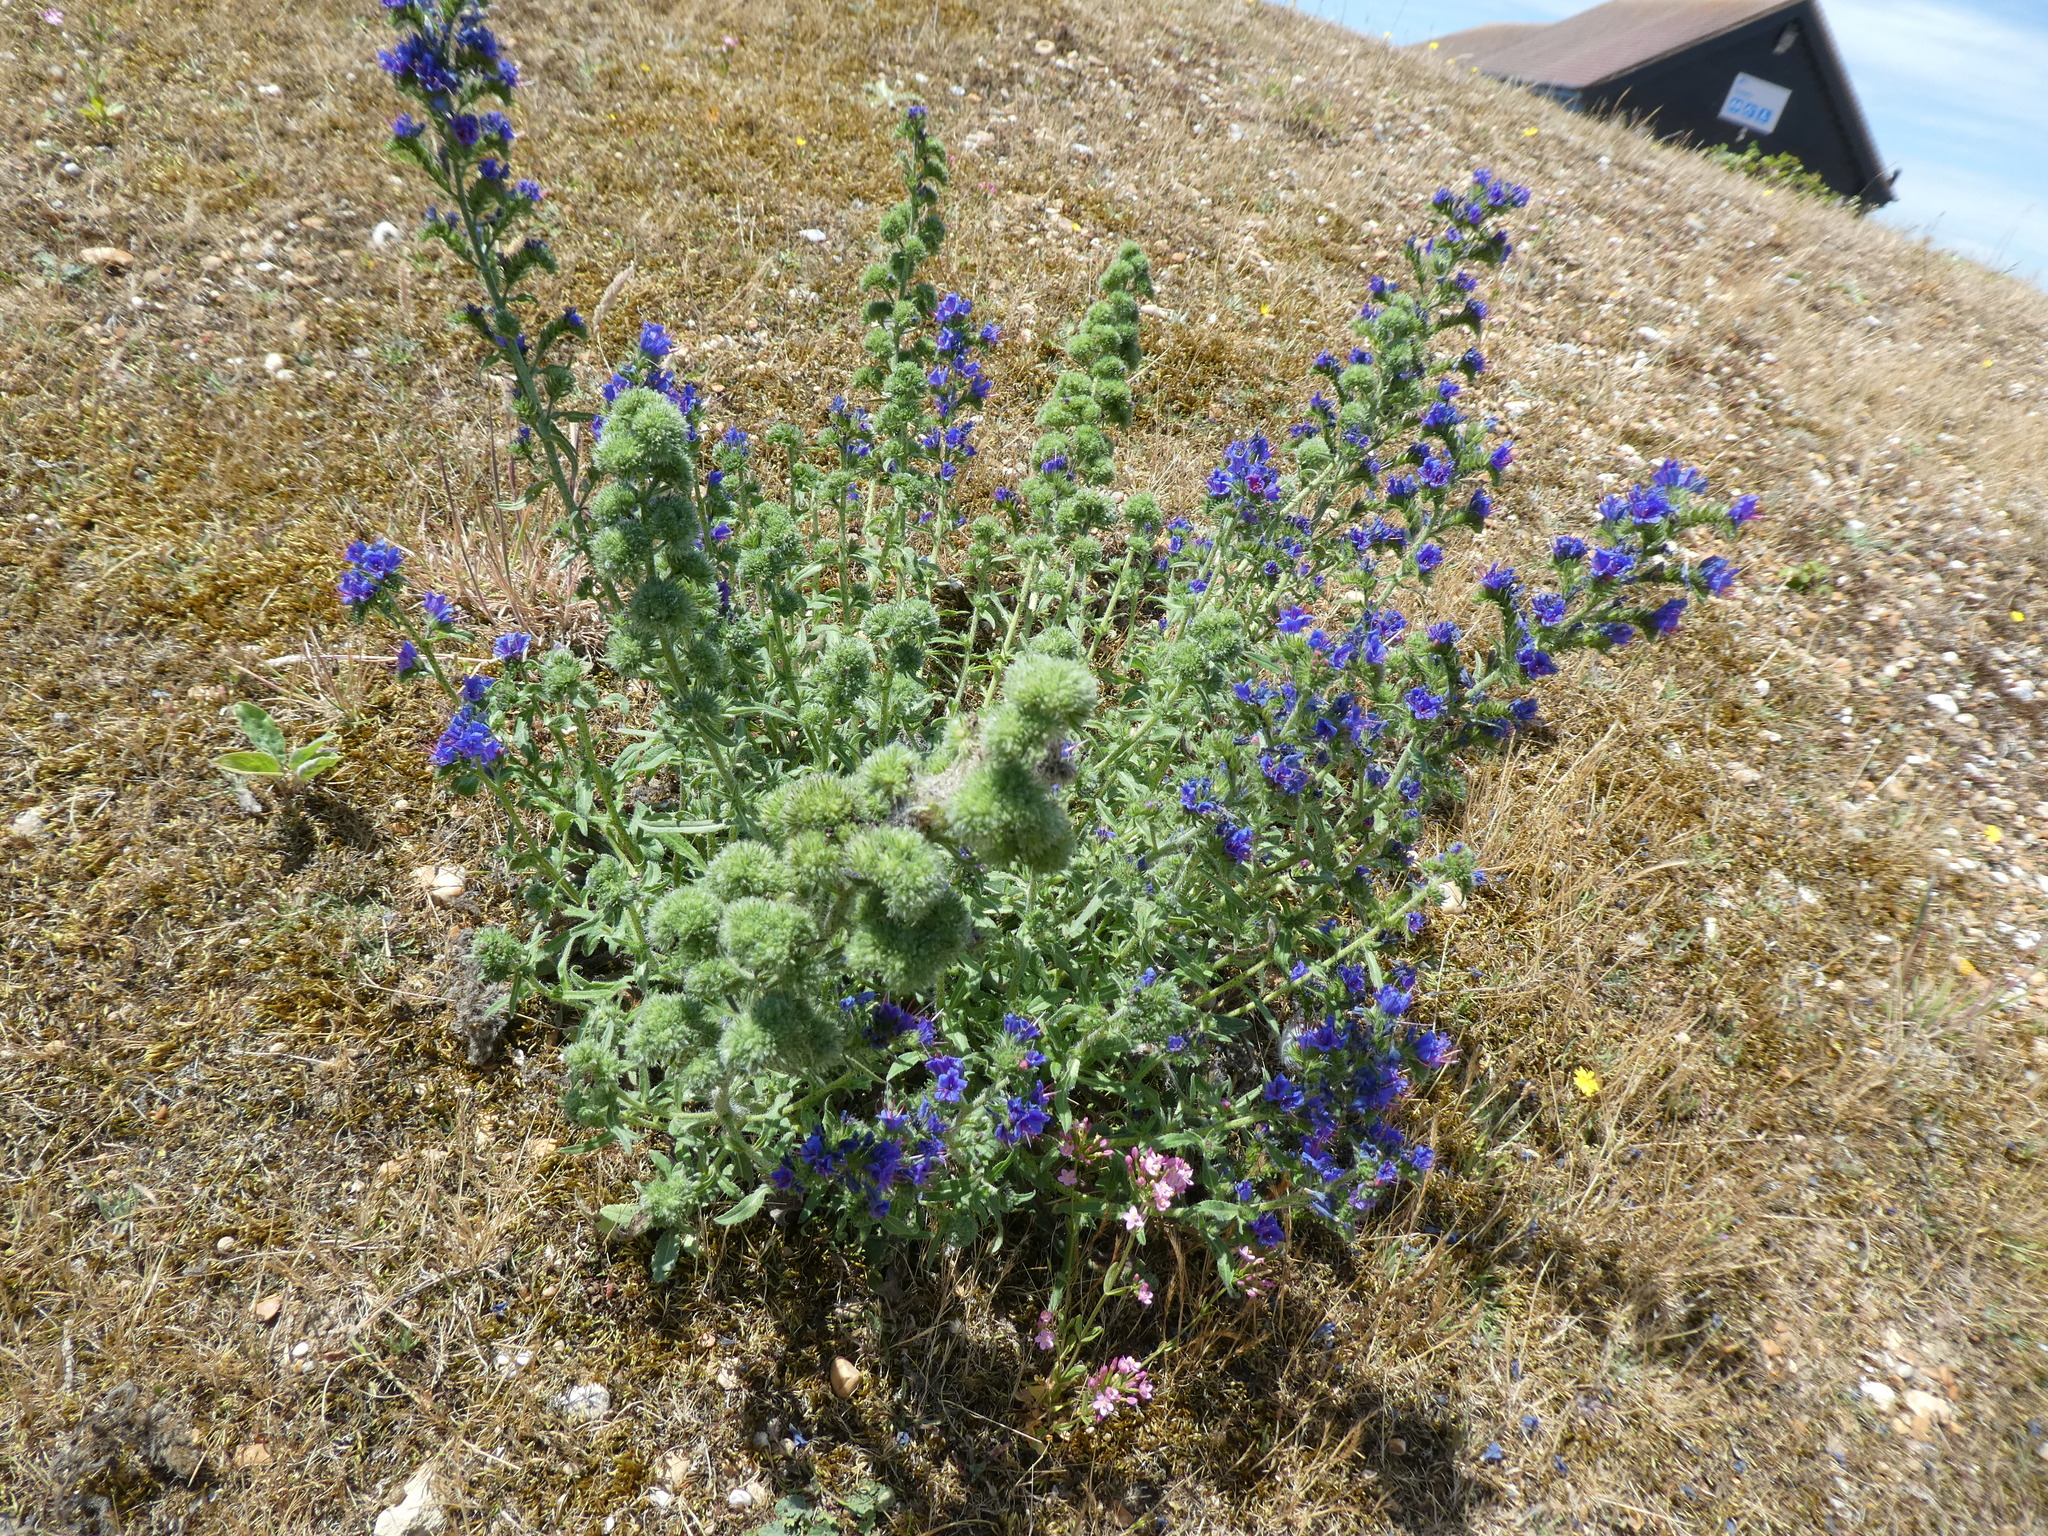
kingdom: Plantae
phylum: Tracheophyta
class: Magnoliopsida
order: Boraginales
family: Boraginaceae
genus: Echium
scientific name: Echium vulgare
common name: Common viper's bugloss
